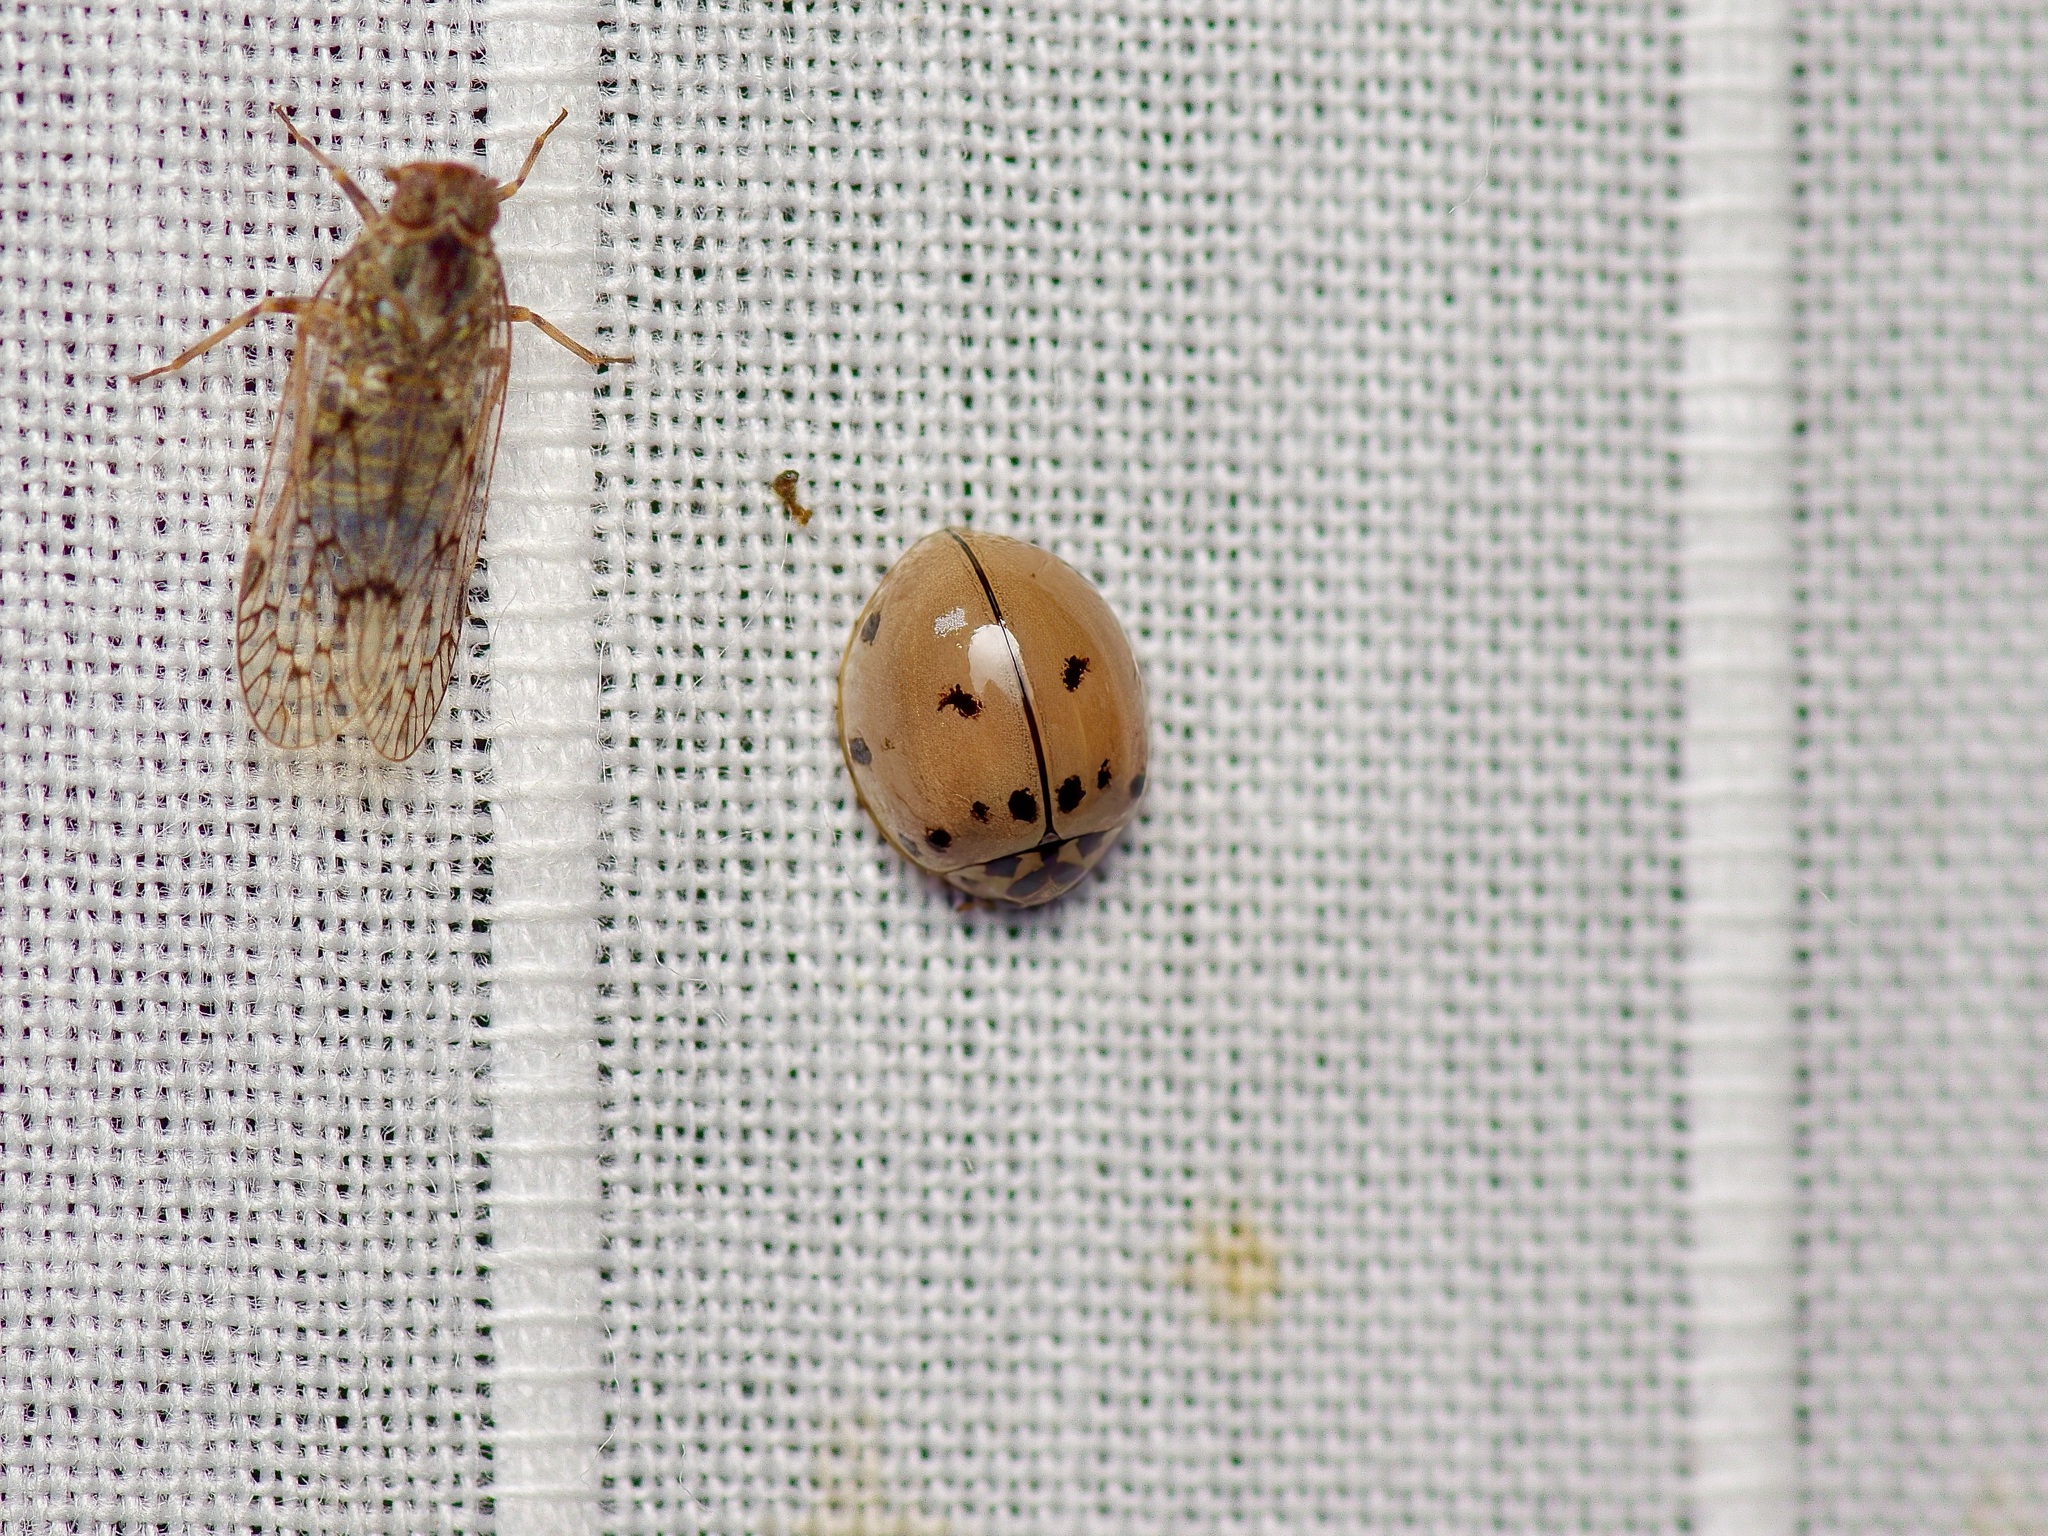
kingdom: Animalia
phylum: Arthropoda
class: Insecta
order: Coleoptera
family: Coccinellidae
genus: Olla
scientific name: Olla v-nigrum
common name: Ashy gray lady beetle
